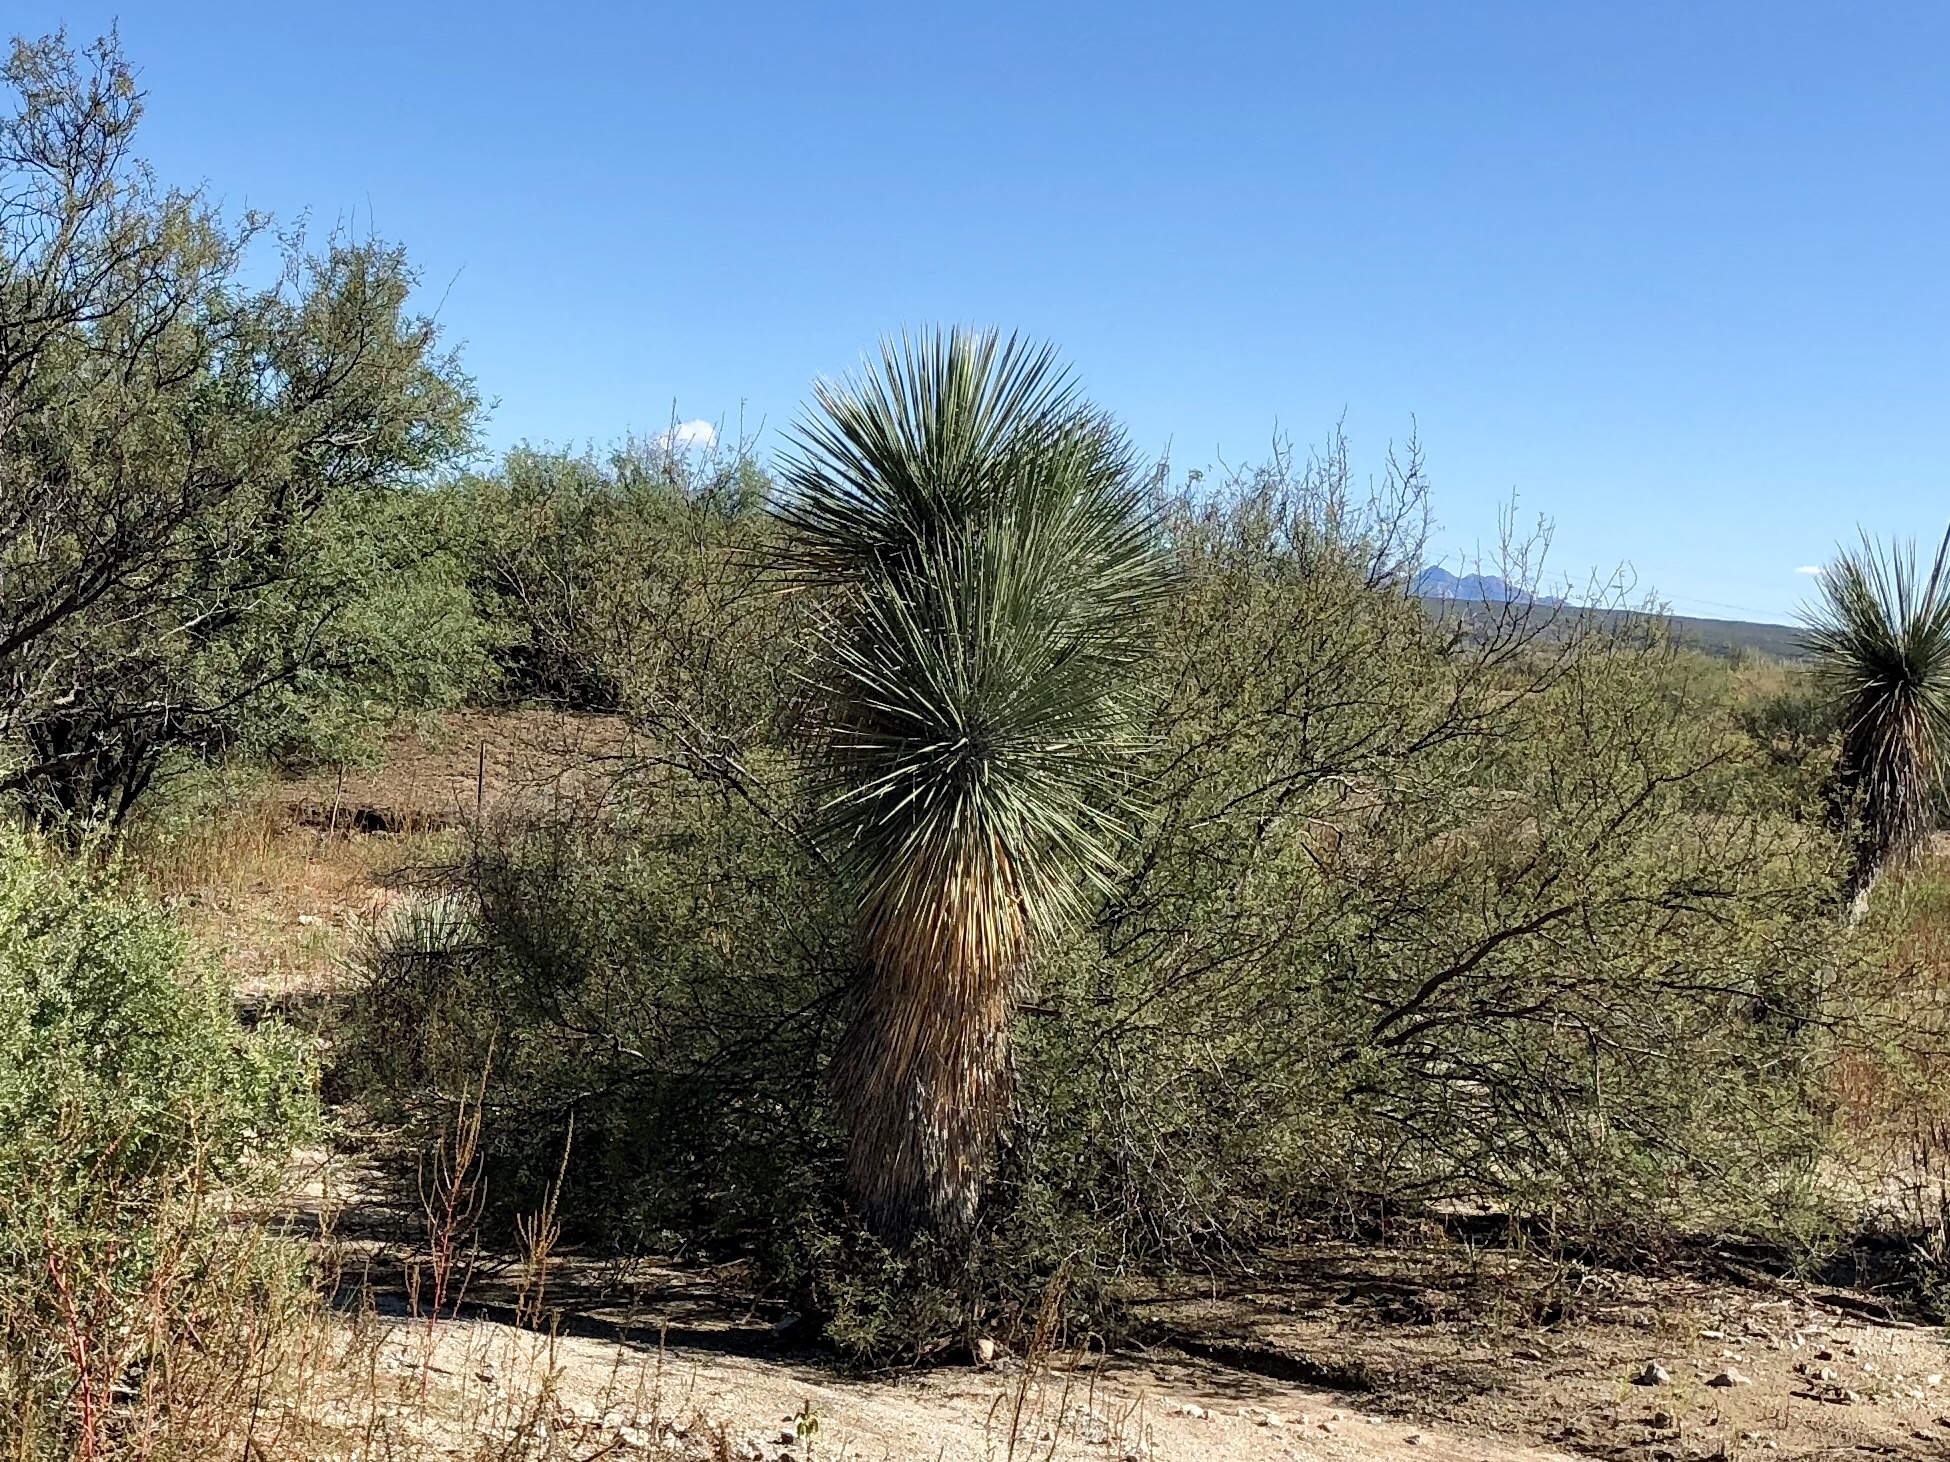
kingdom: Plantae
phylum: Tracheophyta
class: Liliopsida
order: Asparagales
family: Asparagaceae
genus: Yucca
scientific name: Yucca elata
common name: Palmella
